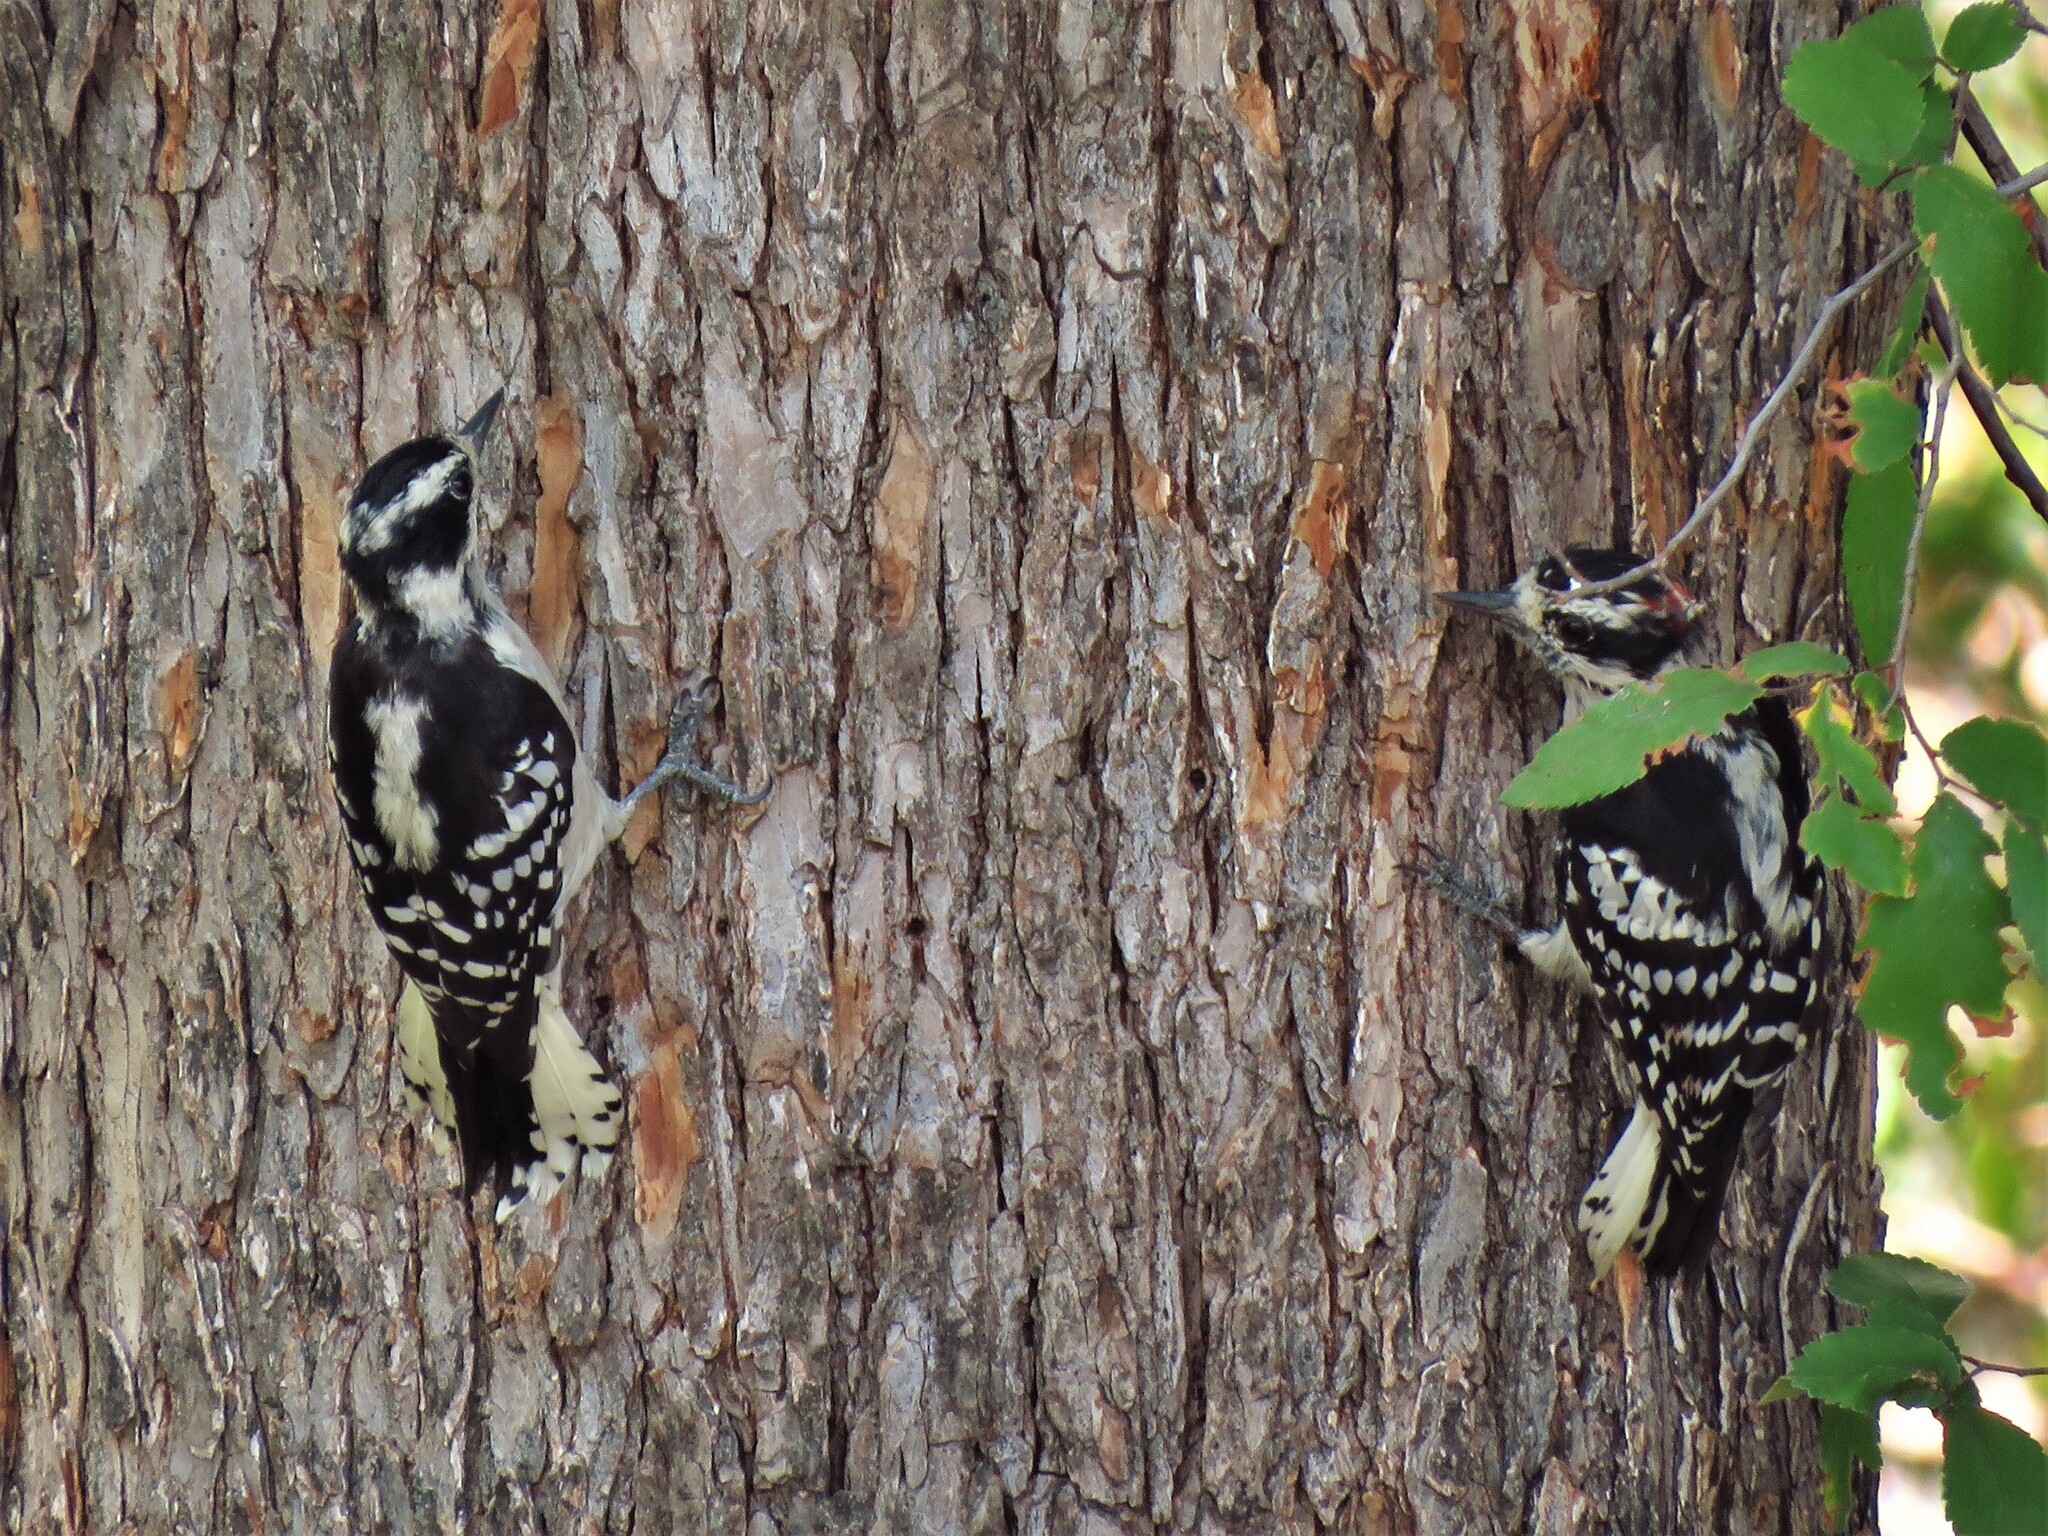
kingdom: Animalia
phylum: Chordata
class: Aves
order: Piciformes
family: Picidae
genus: Dryobates
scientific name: Dryobates pubescens
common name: Downy woodpecker
